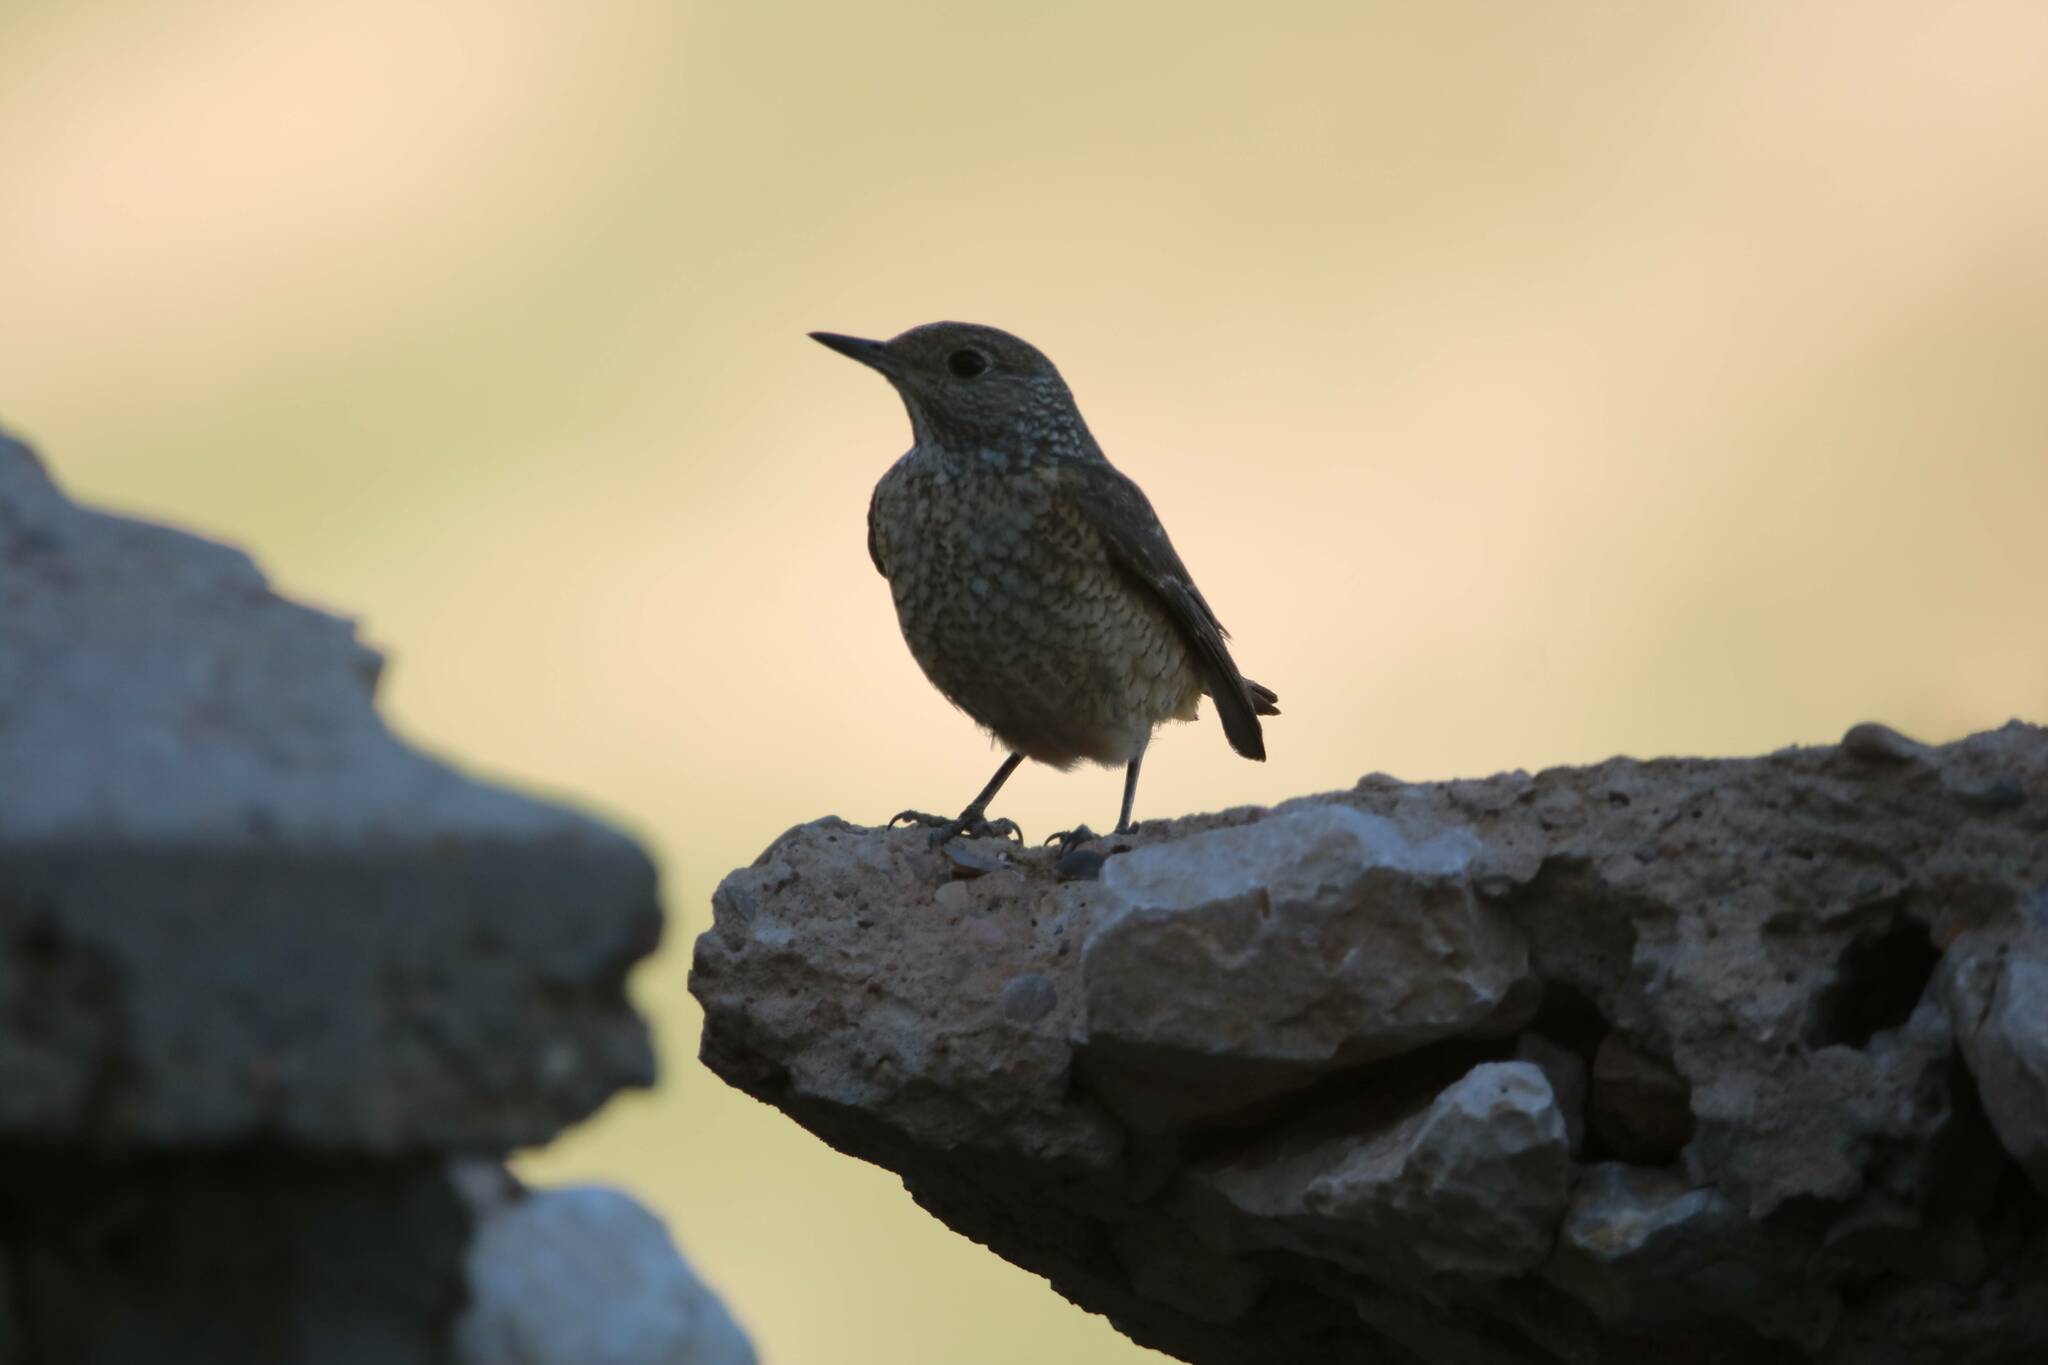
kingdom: Animalia
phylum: Chordata
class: Aves
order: Passeriformes
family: Muscicapidae
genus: Monticola
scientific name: Monticola saxatilis
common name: Rufous-tailed rock thrush
